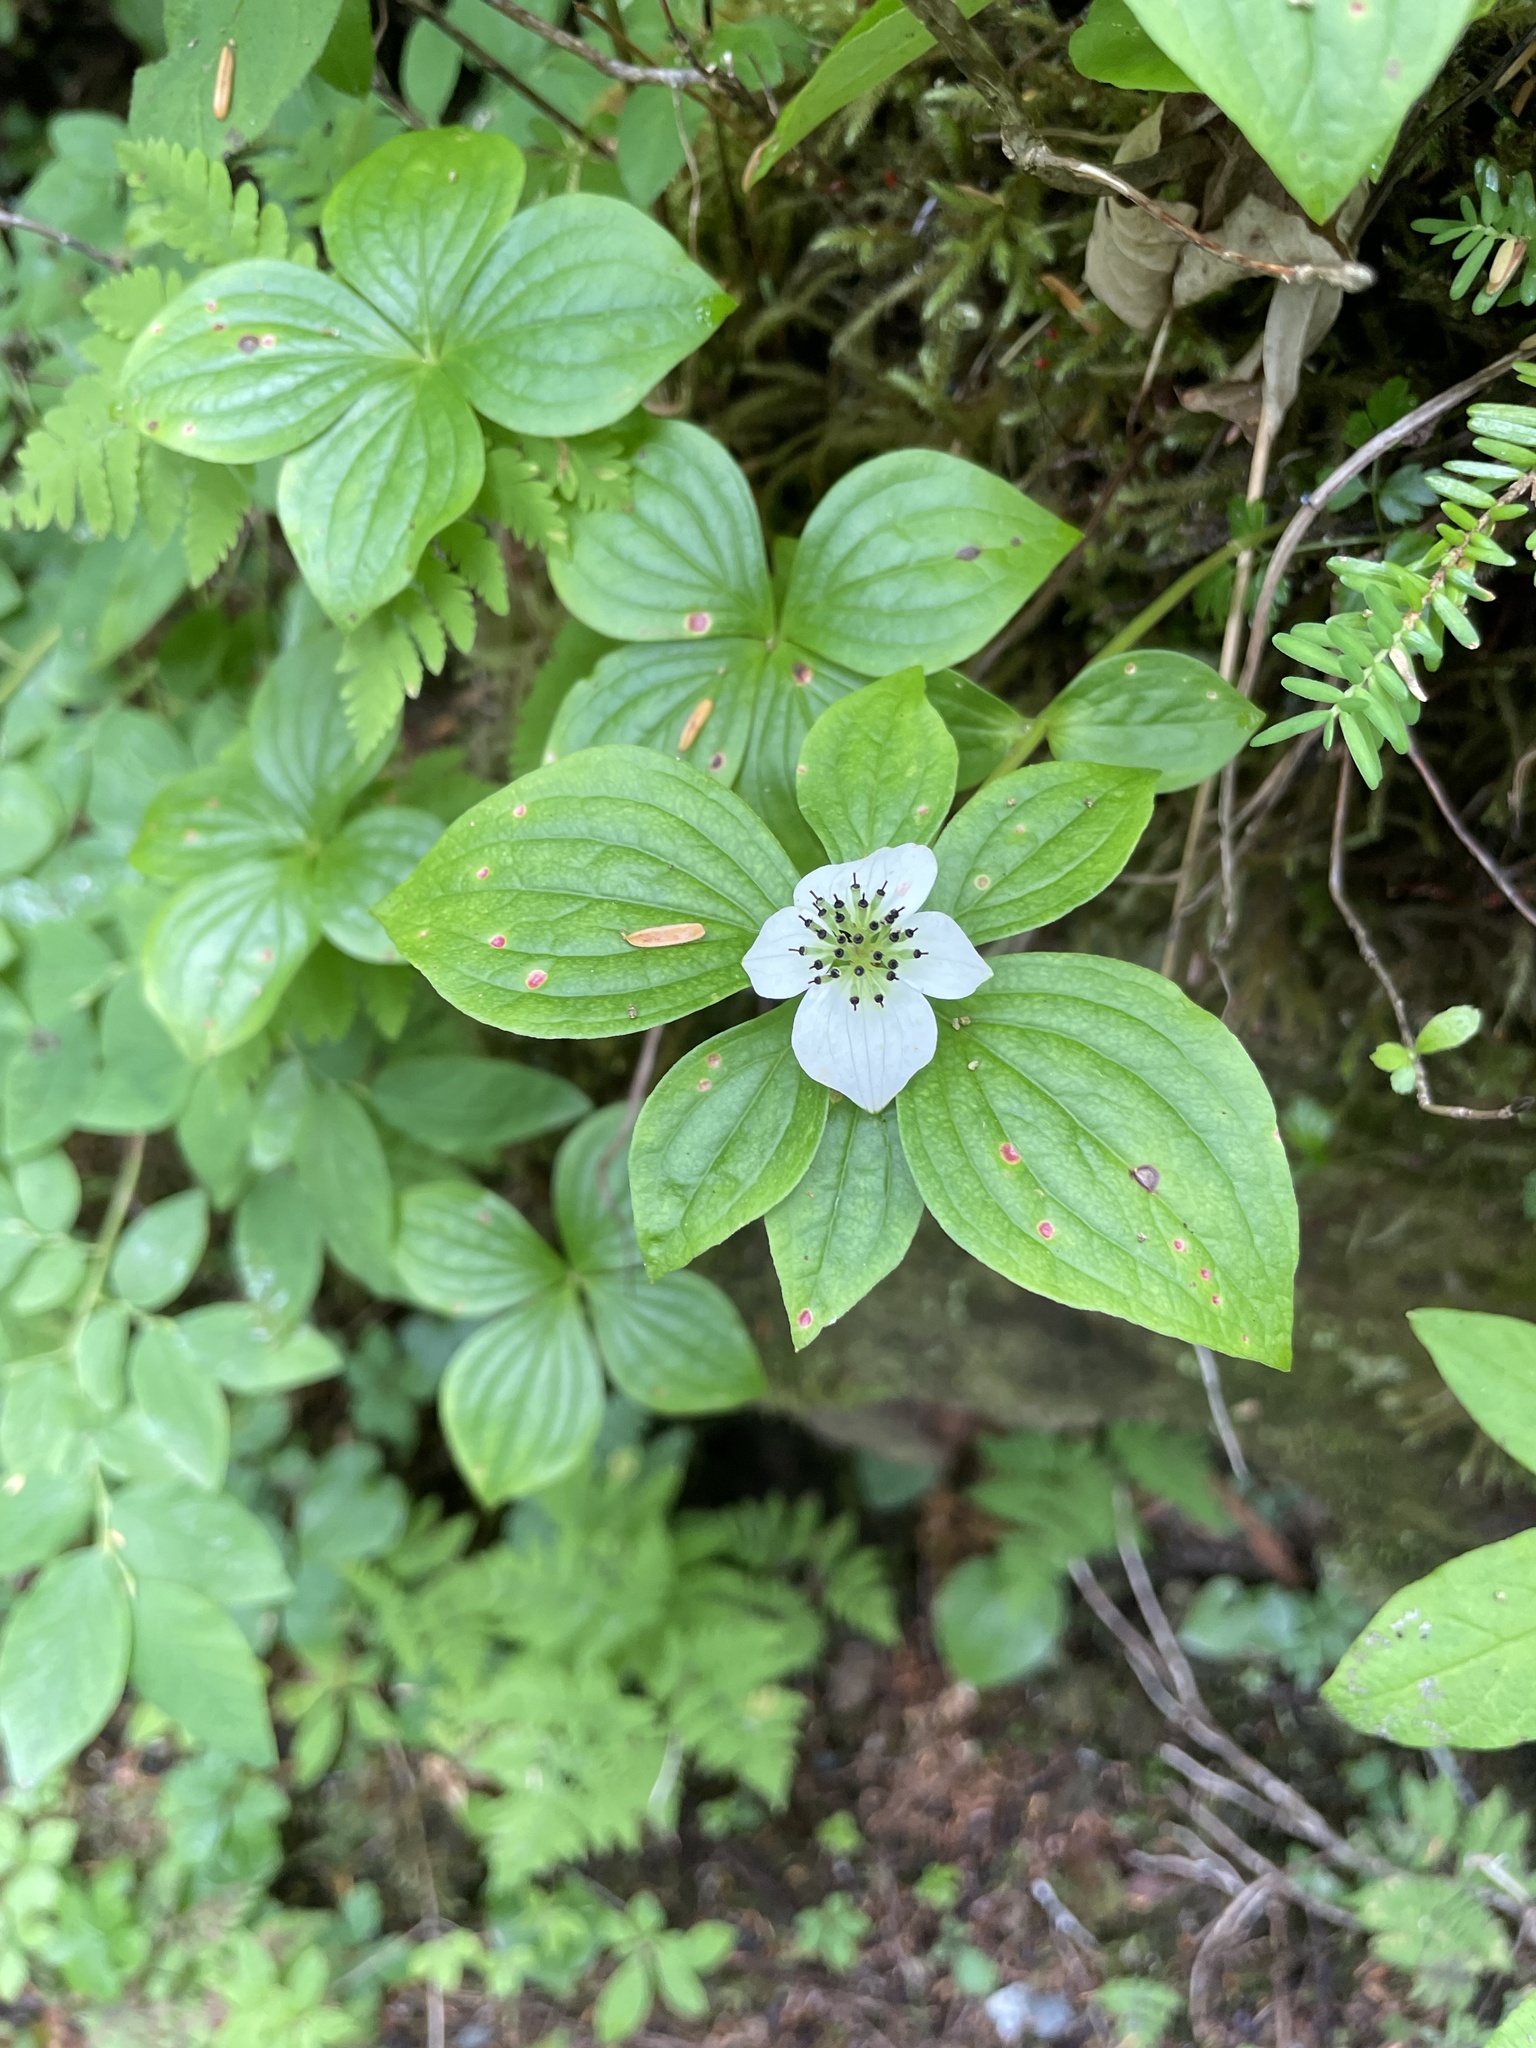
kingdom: Plantae
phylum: Tracheophyta
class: Magnoliopsida
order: Cornales
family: Cornaceae
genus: Cornus
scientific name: Cornus unalaschkensis
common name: Alaska bunchberry
